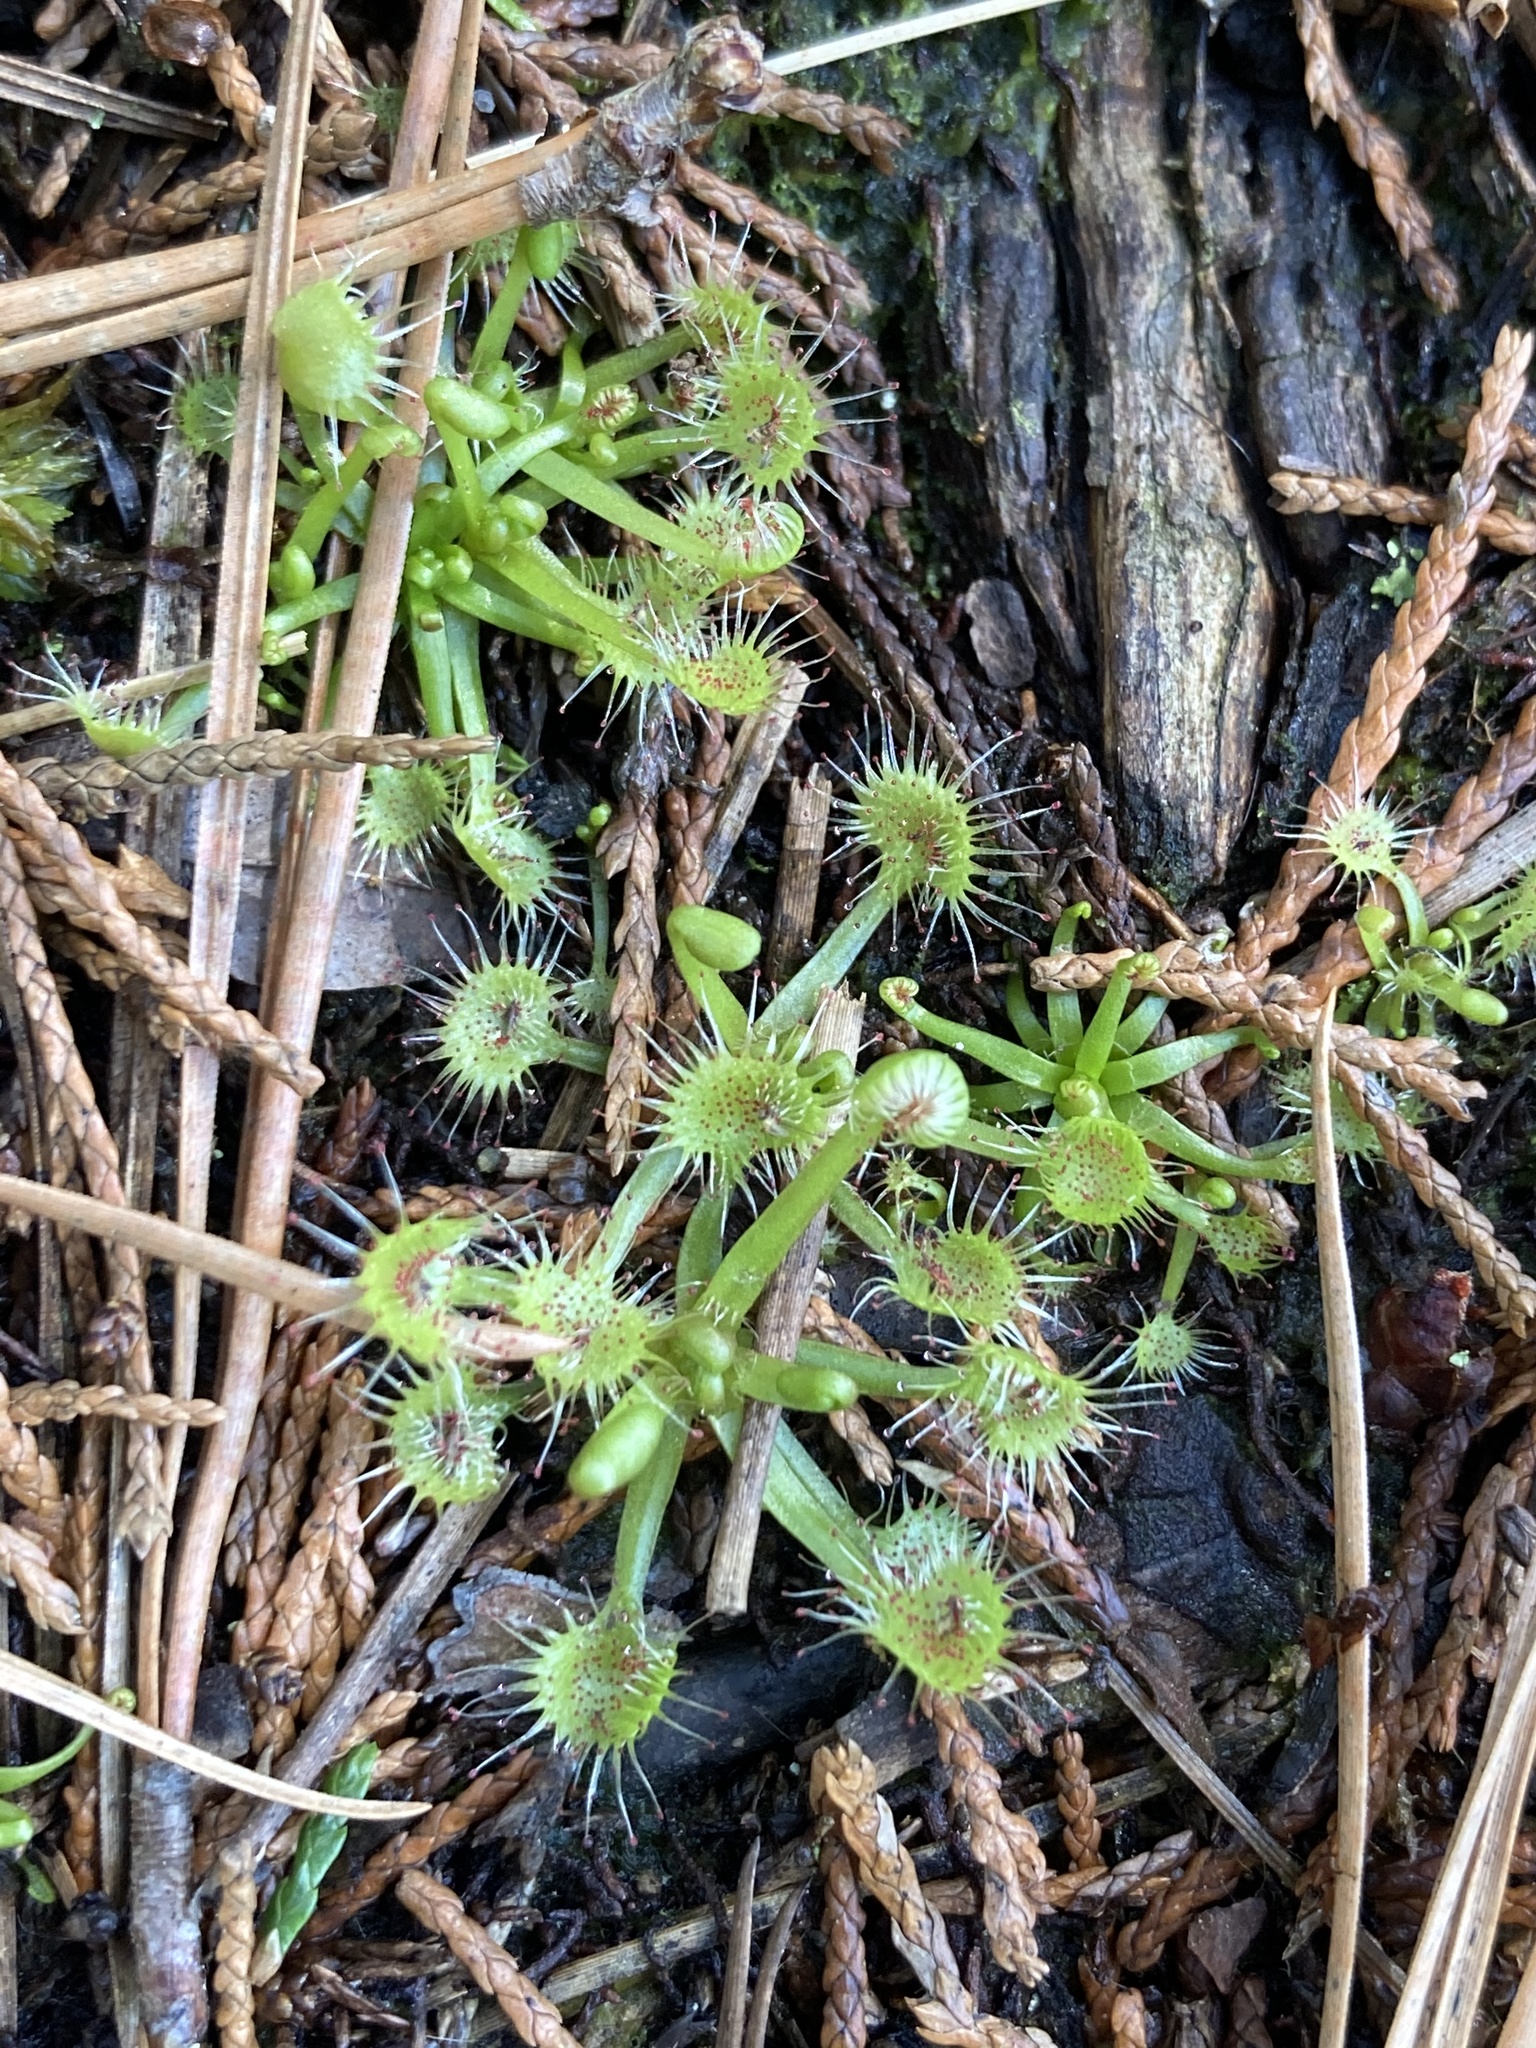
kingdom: Plantae
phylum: Tracheophyta
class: Magnoliopsida
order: Caryophyllales
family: Droseraceae
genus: Drosera
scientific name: Drosera rotundifolia
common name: Round-leaved sundew
